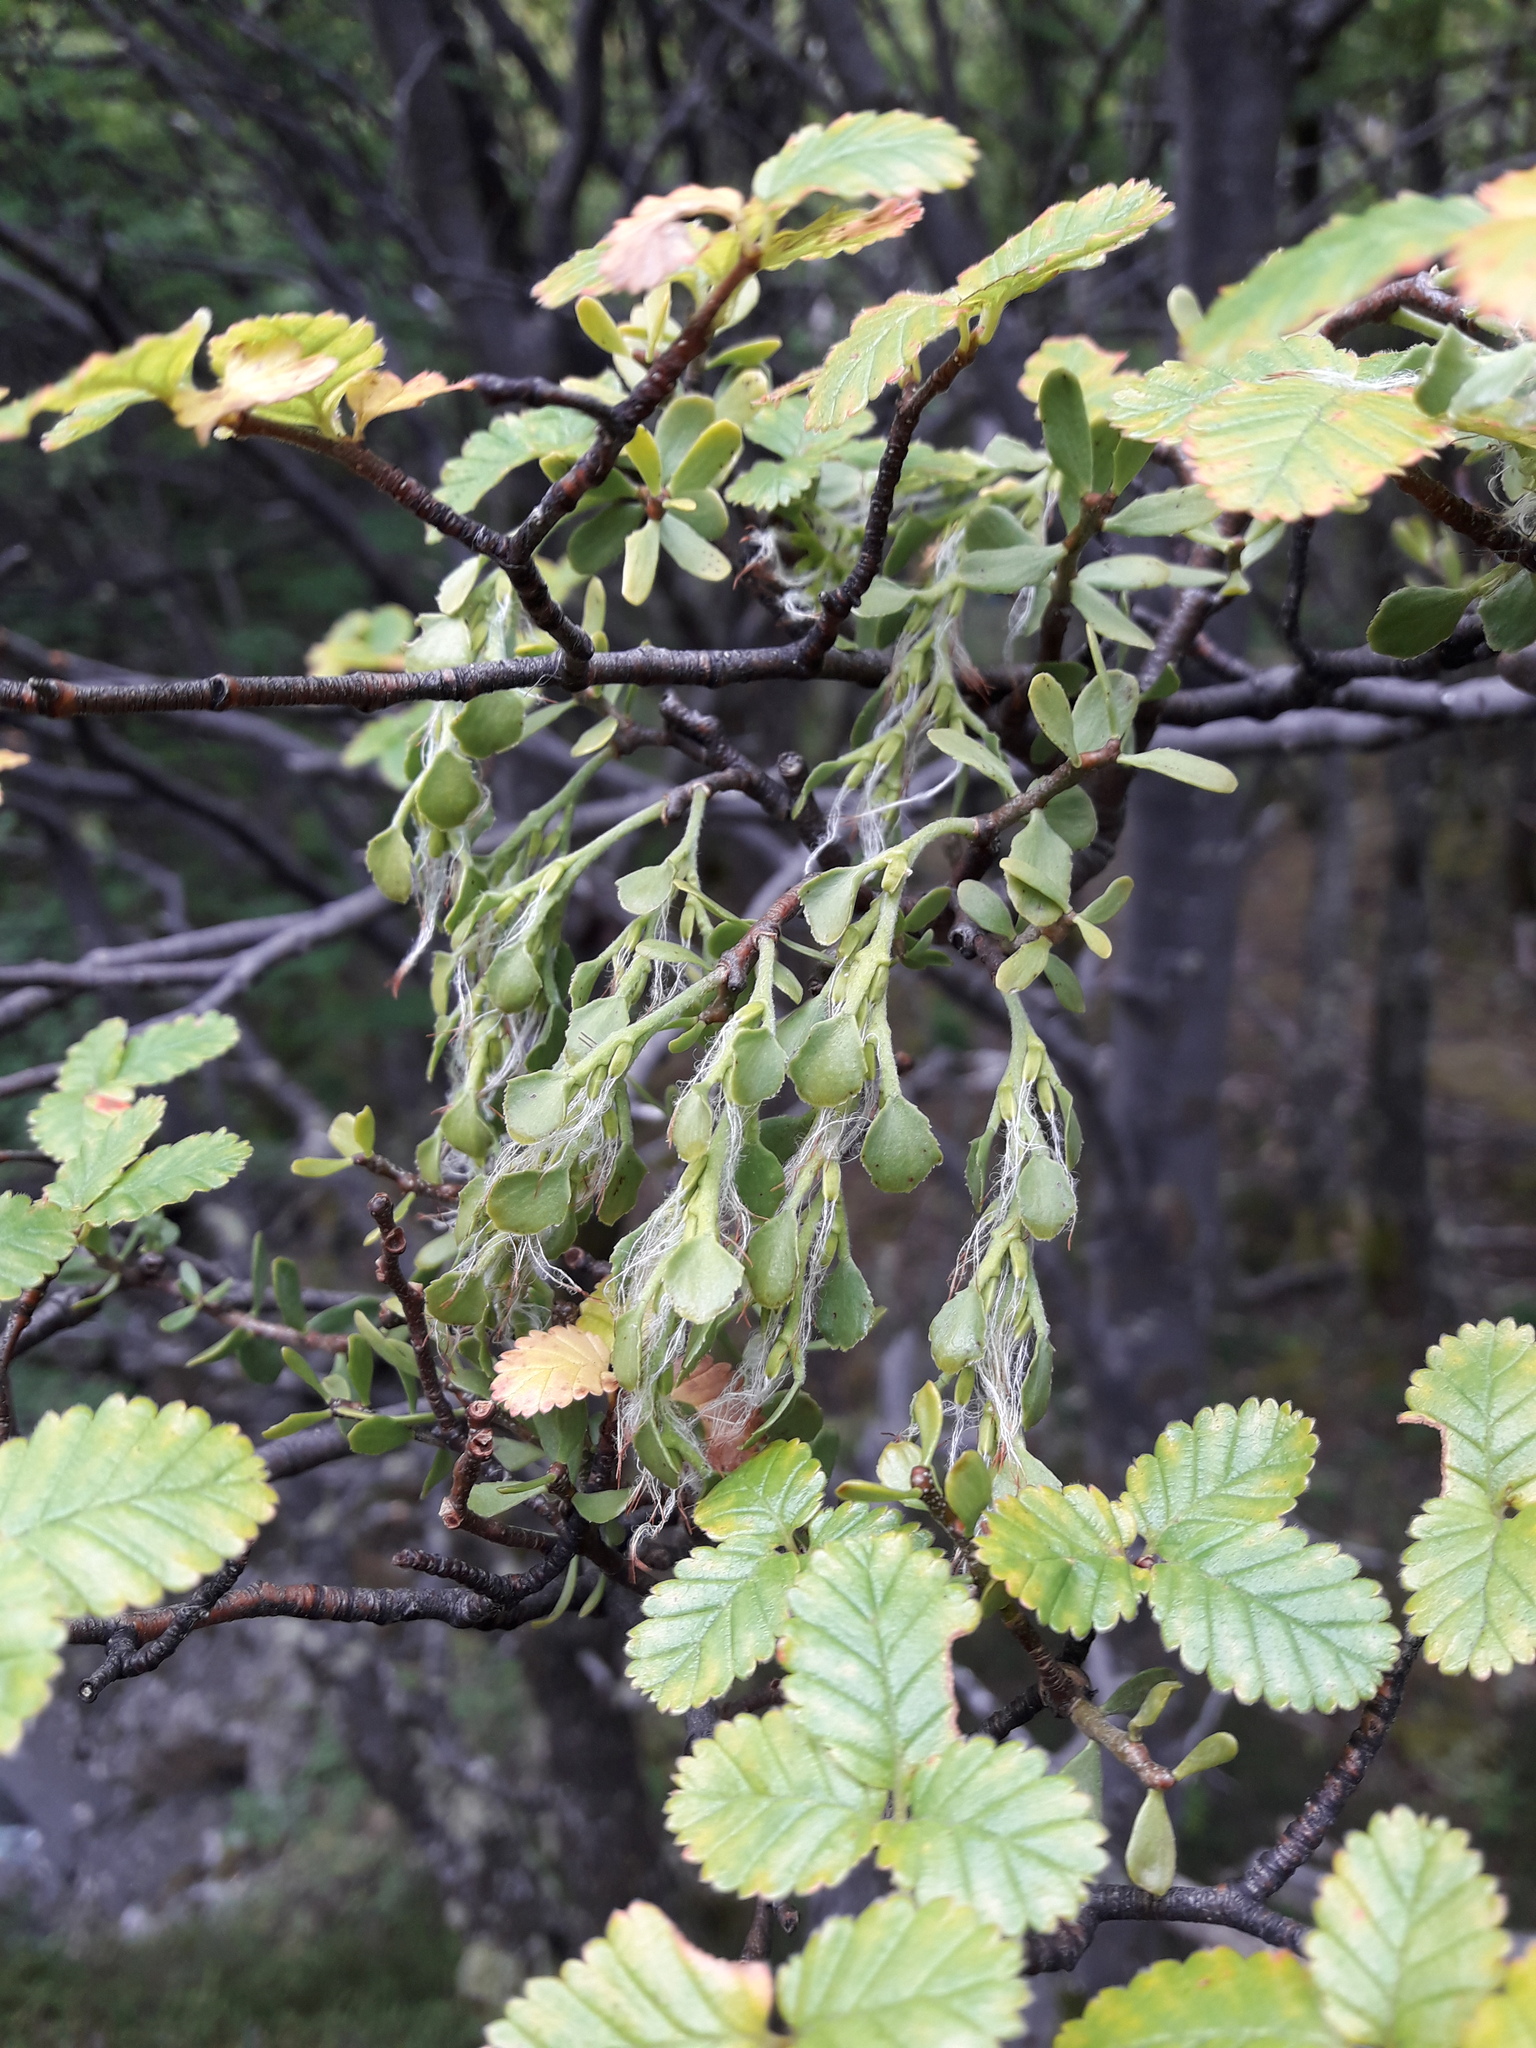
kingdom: Plantae
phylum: Tracheophyta
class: Magnoliopsida
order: Santalales
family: Misodendraceae
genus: Misodendrum
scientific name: Misodendrum quadriflorum
